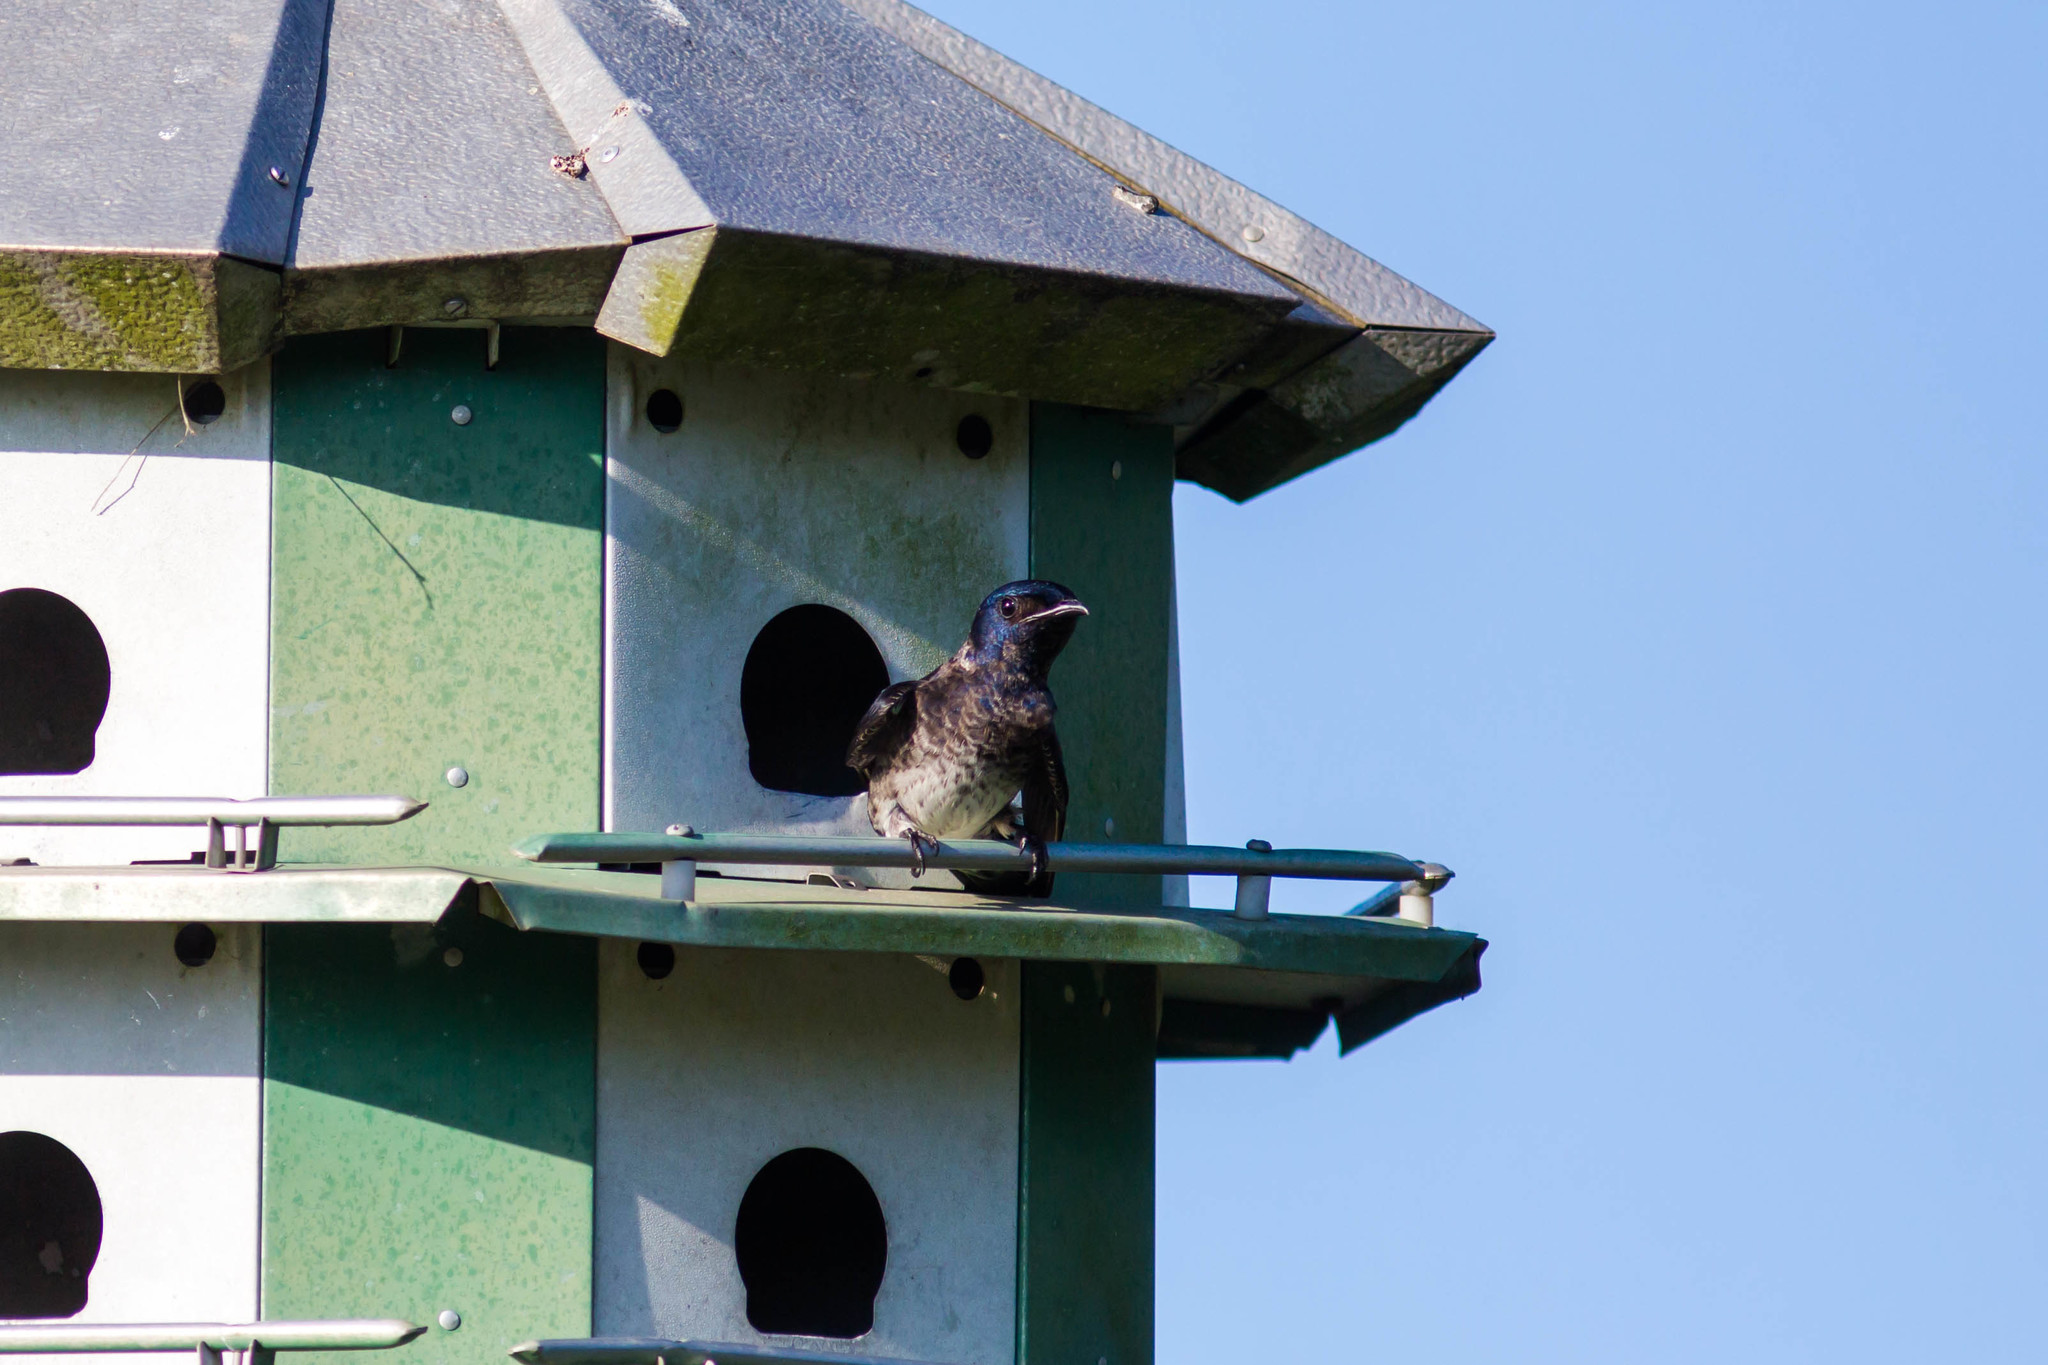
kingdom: Animalia
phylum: Chordata
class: Aves
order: Passeriformes
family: Hirundinidae
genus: Progne
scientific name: Progne subis
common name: Purple martin
